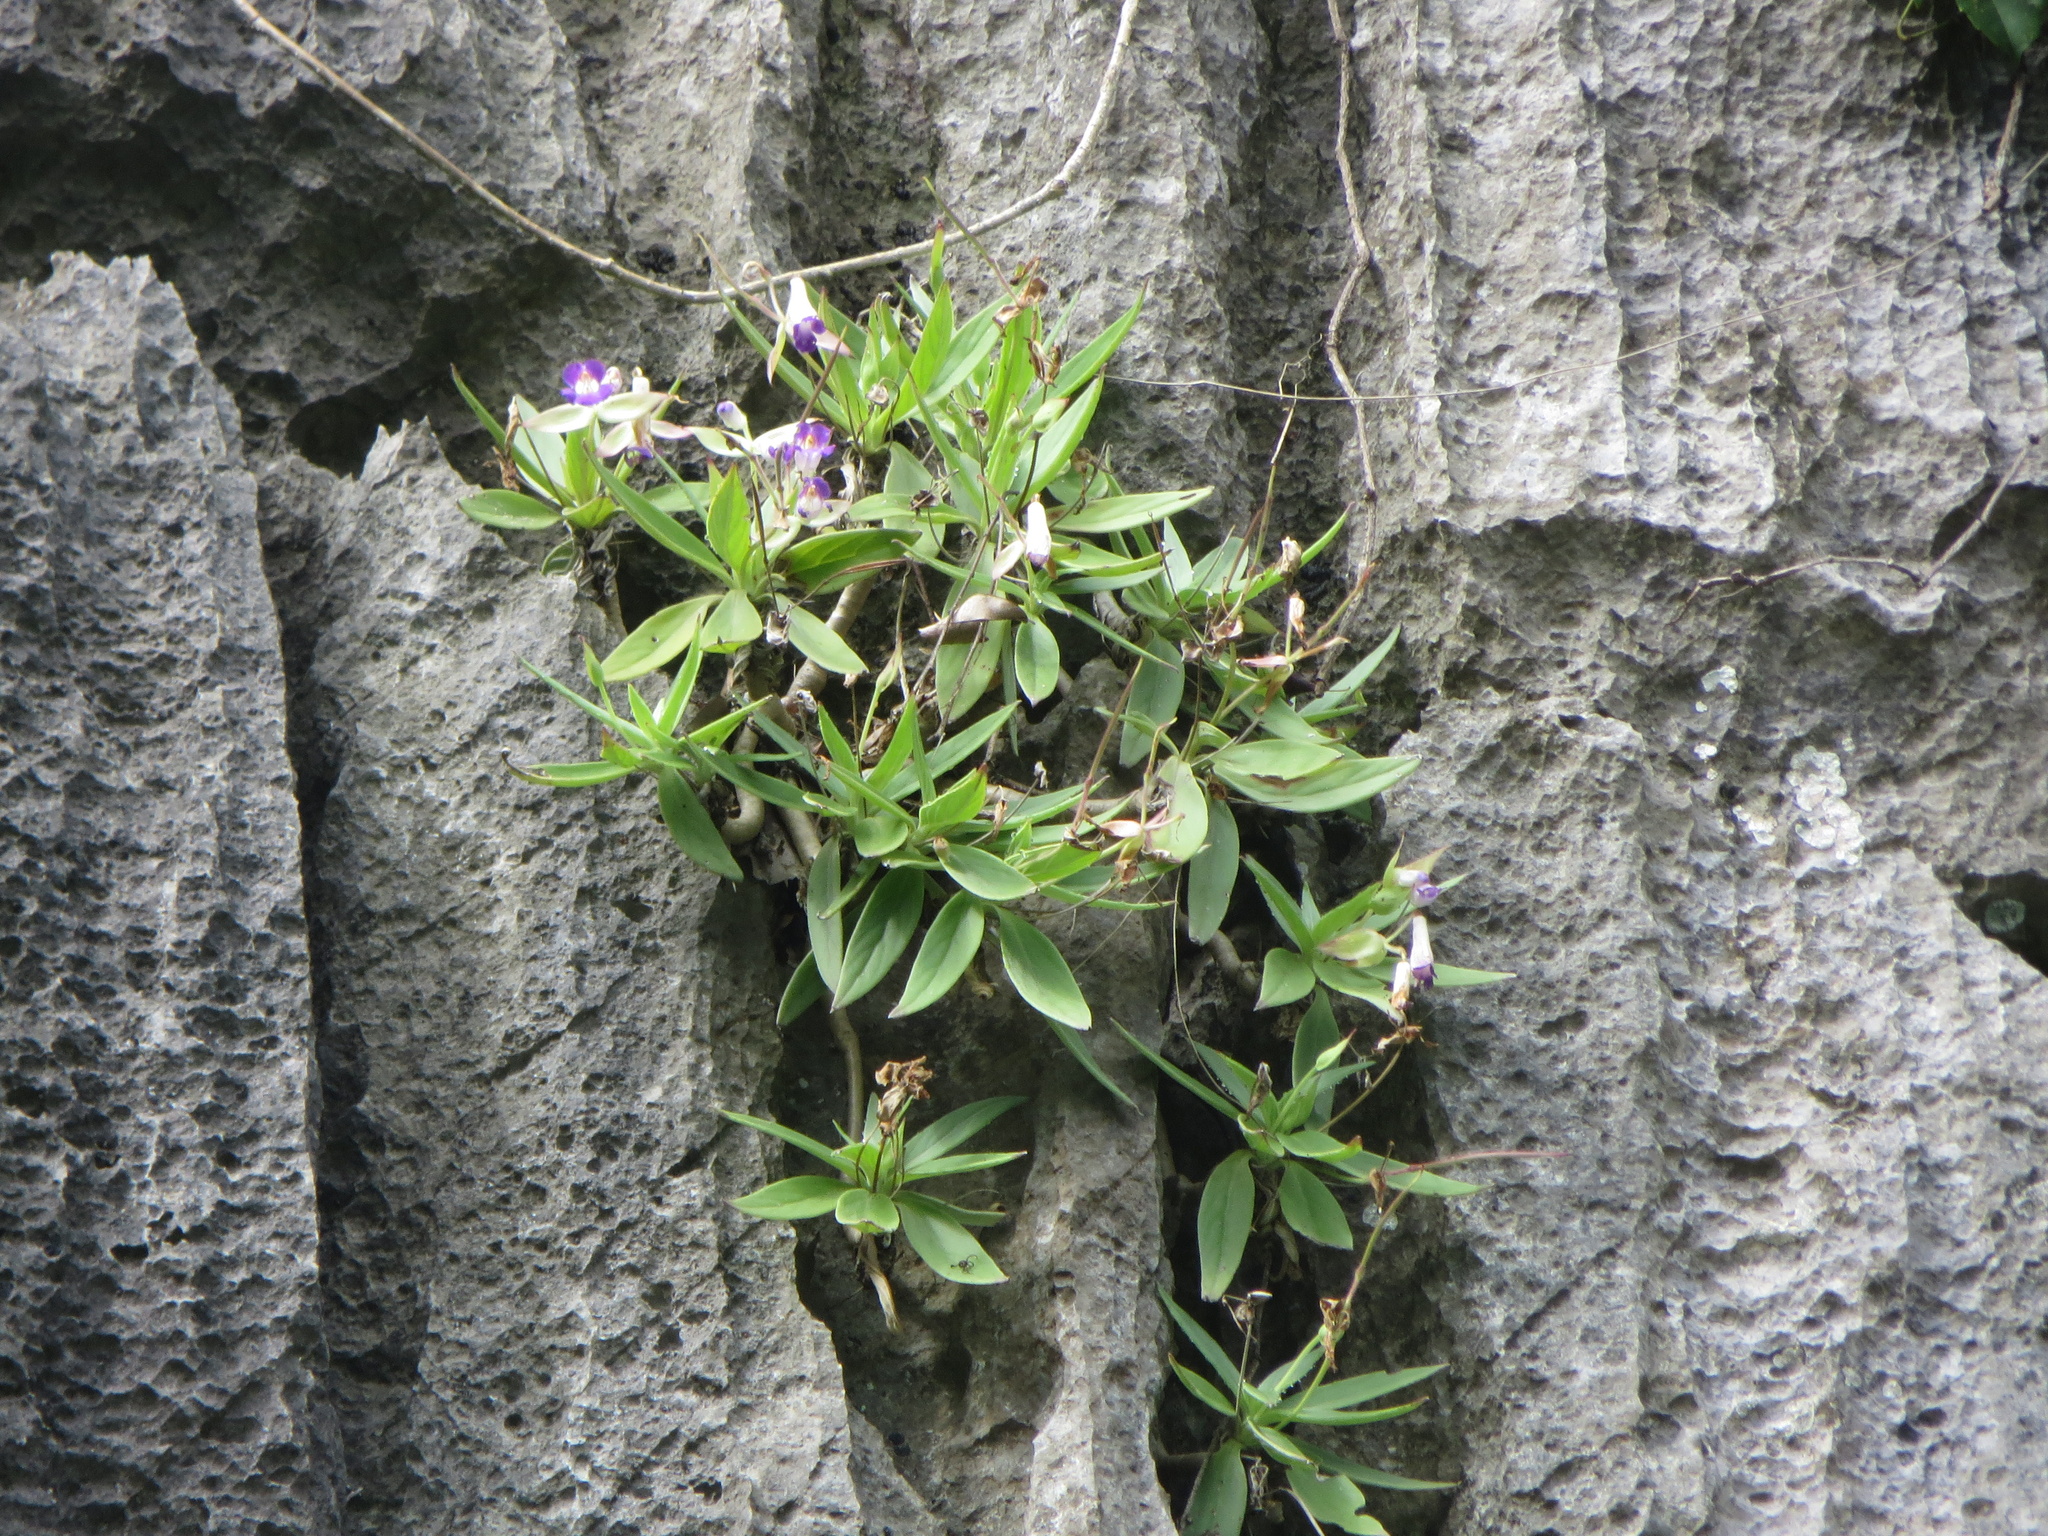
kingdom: Plantae
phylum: Tracheophyta
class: Magnoliopsida
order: Lamiales
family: Gesneriaceae
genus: Primulina
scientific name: Primulina drakei
